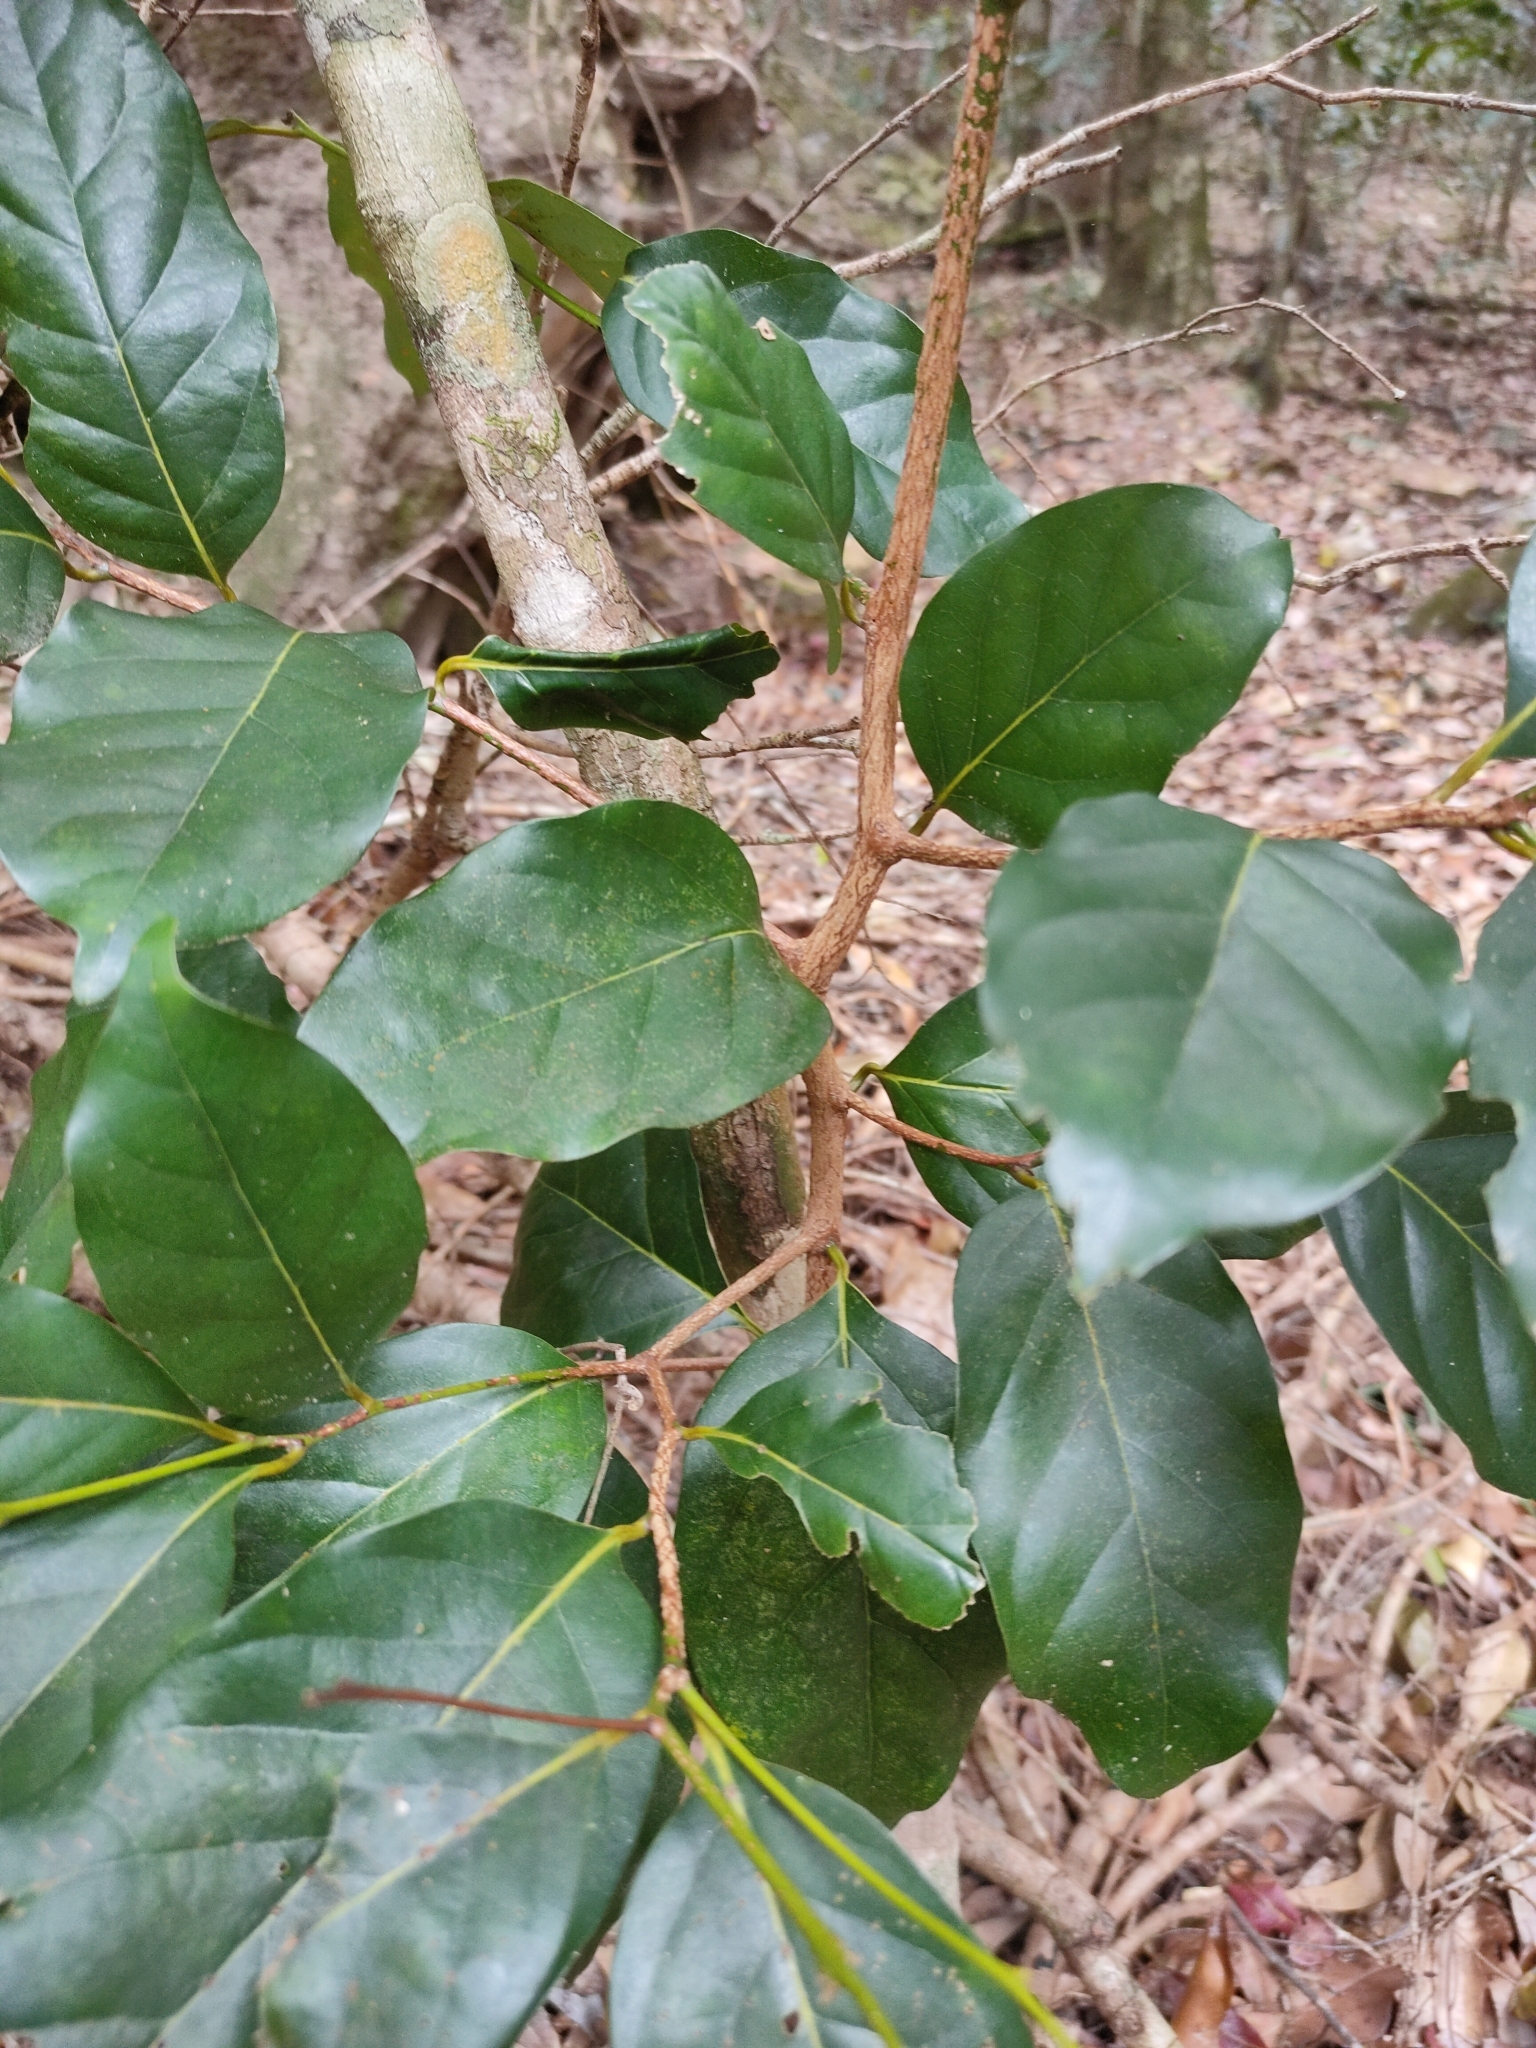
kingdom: Plantae
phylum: Tracheophyta
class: Magnoliopsida
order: Laurales
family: Lauraceae
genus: Cryptocarya
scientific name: Cryptocarya macdonaldii
